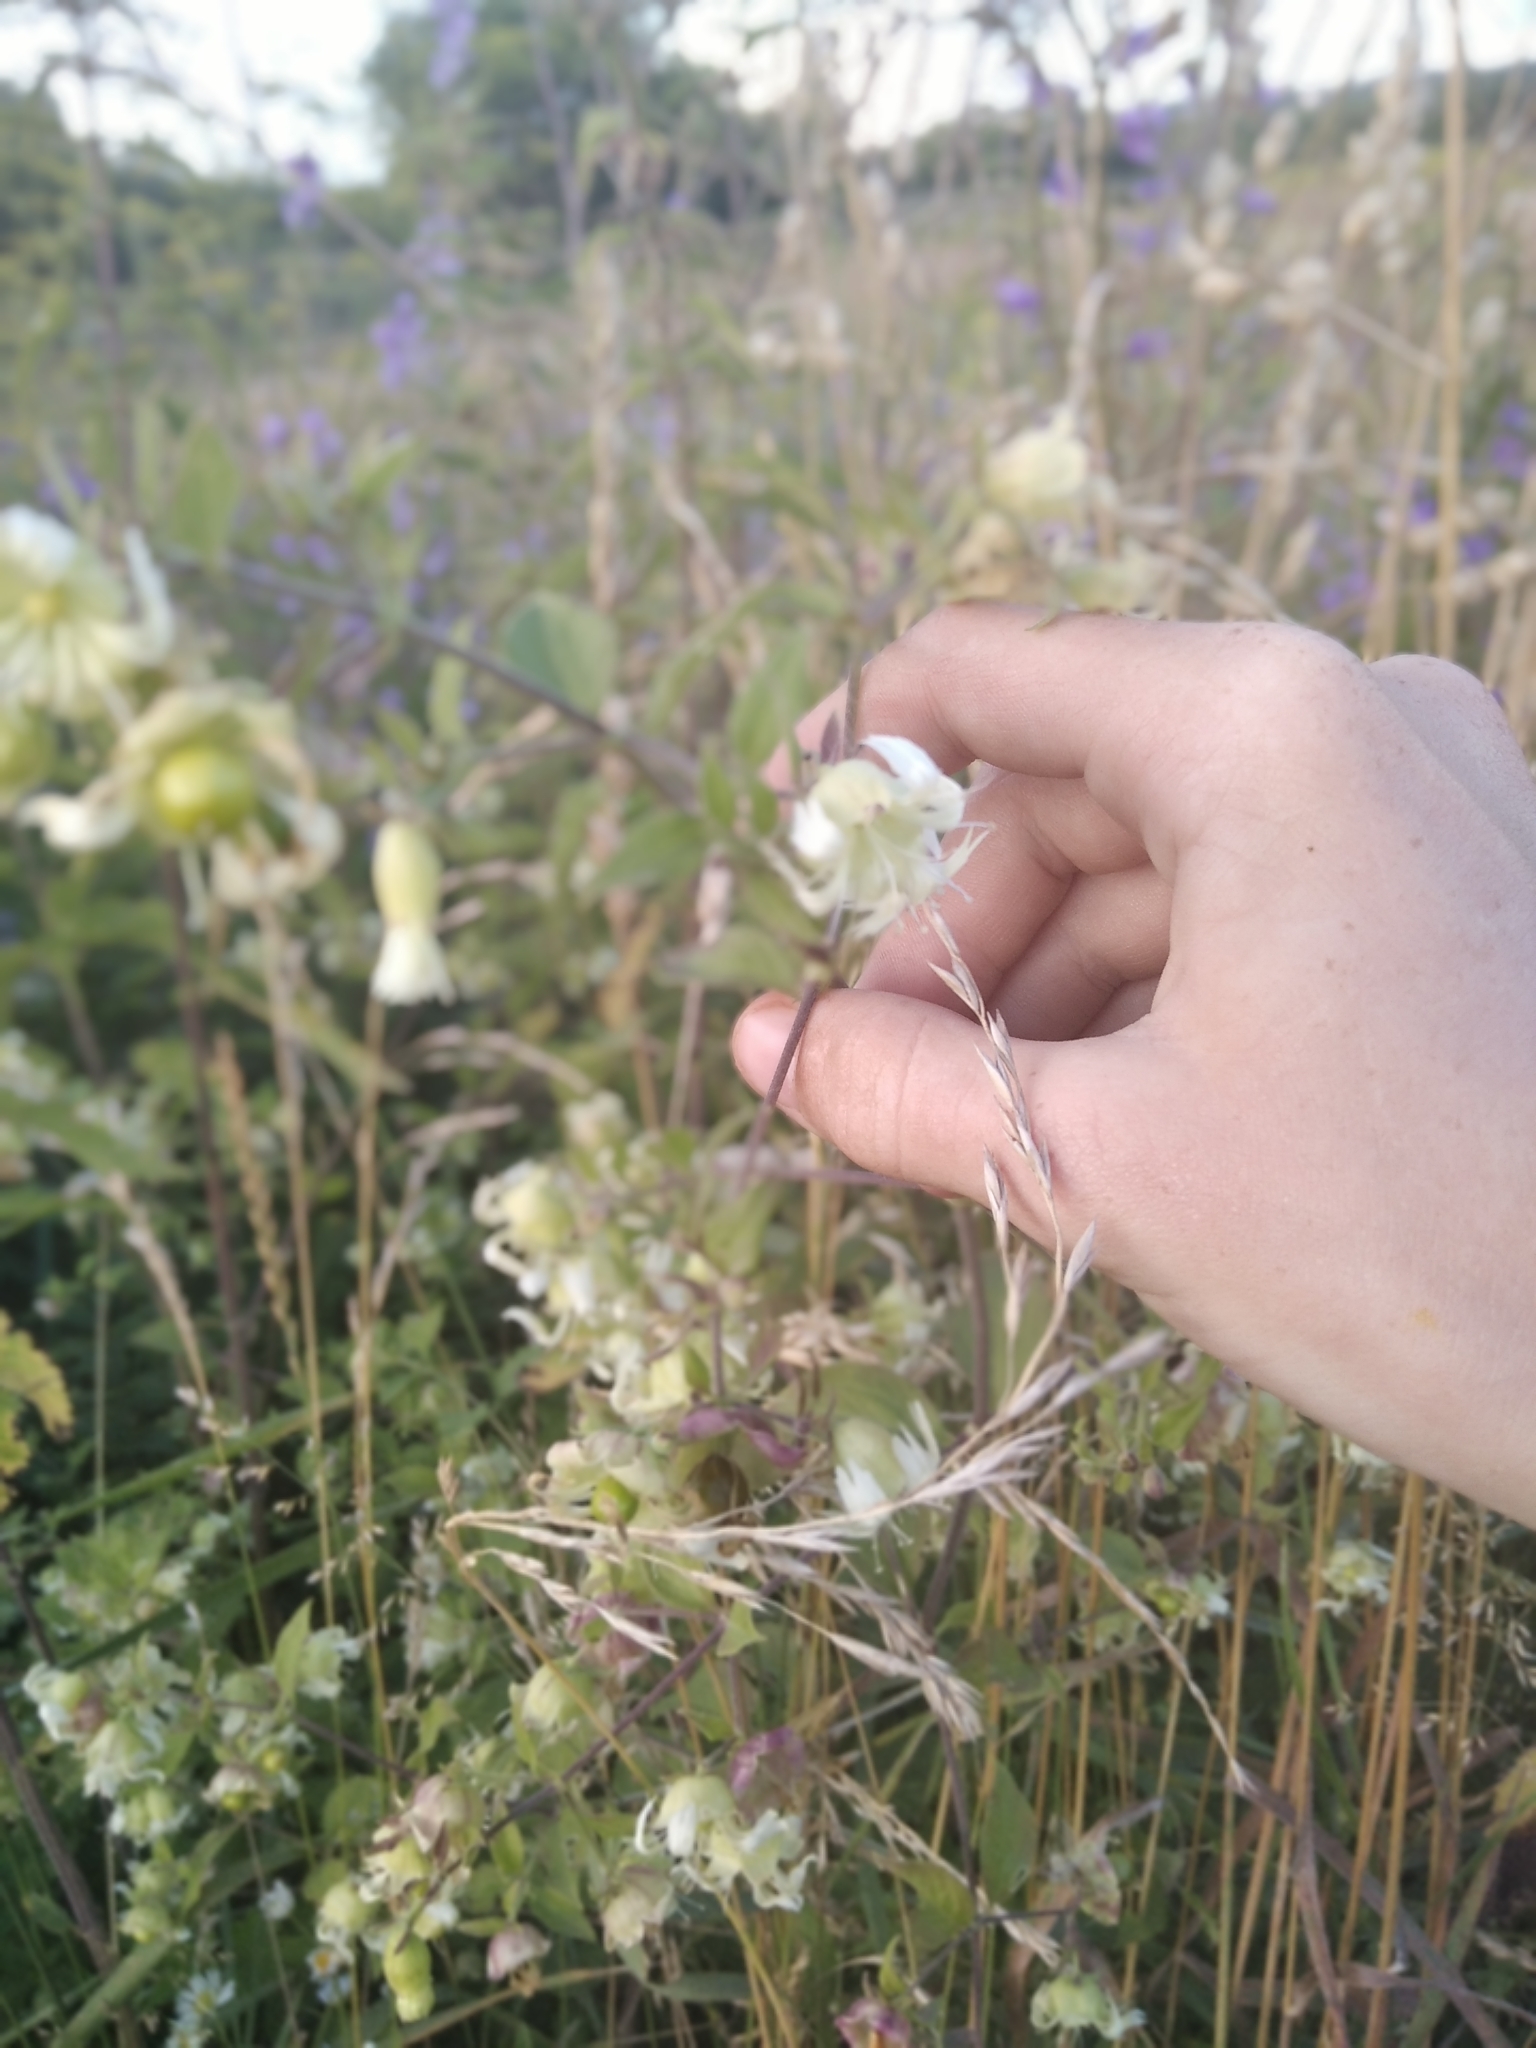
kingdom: Plantae
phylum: Tracheophyta
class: Magnoliopsida
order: Caryophyllales
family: Caryophyllaceae
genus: Silene
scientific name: Silene baccifera
